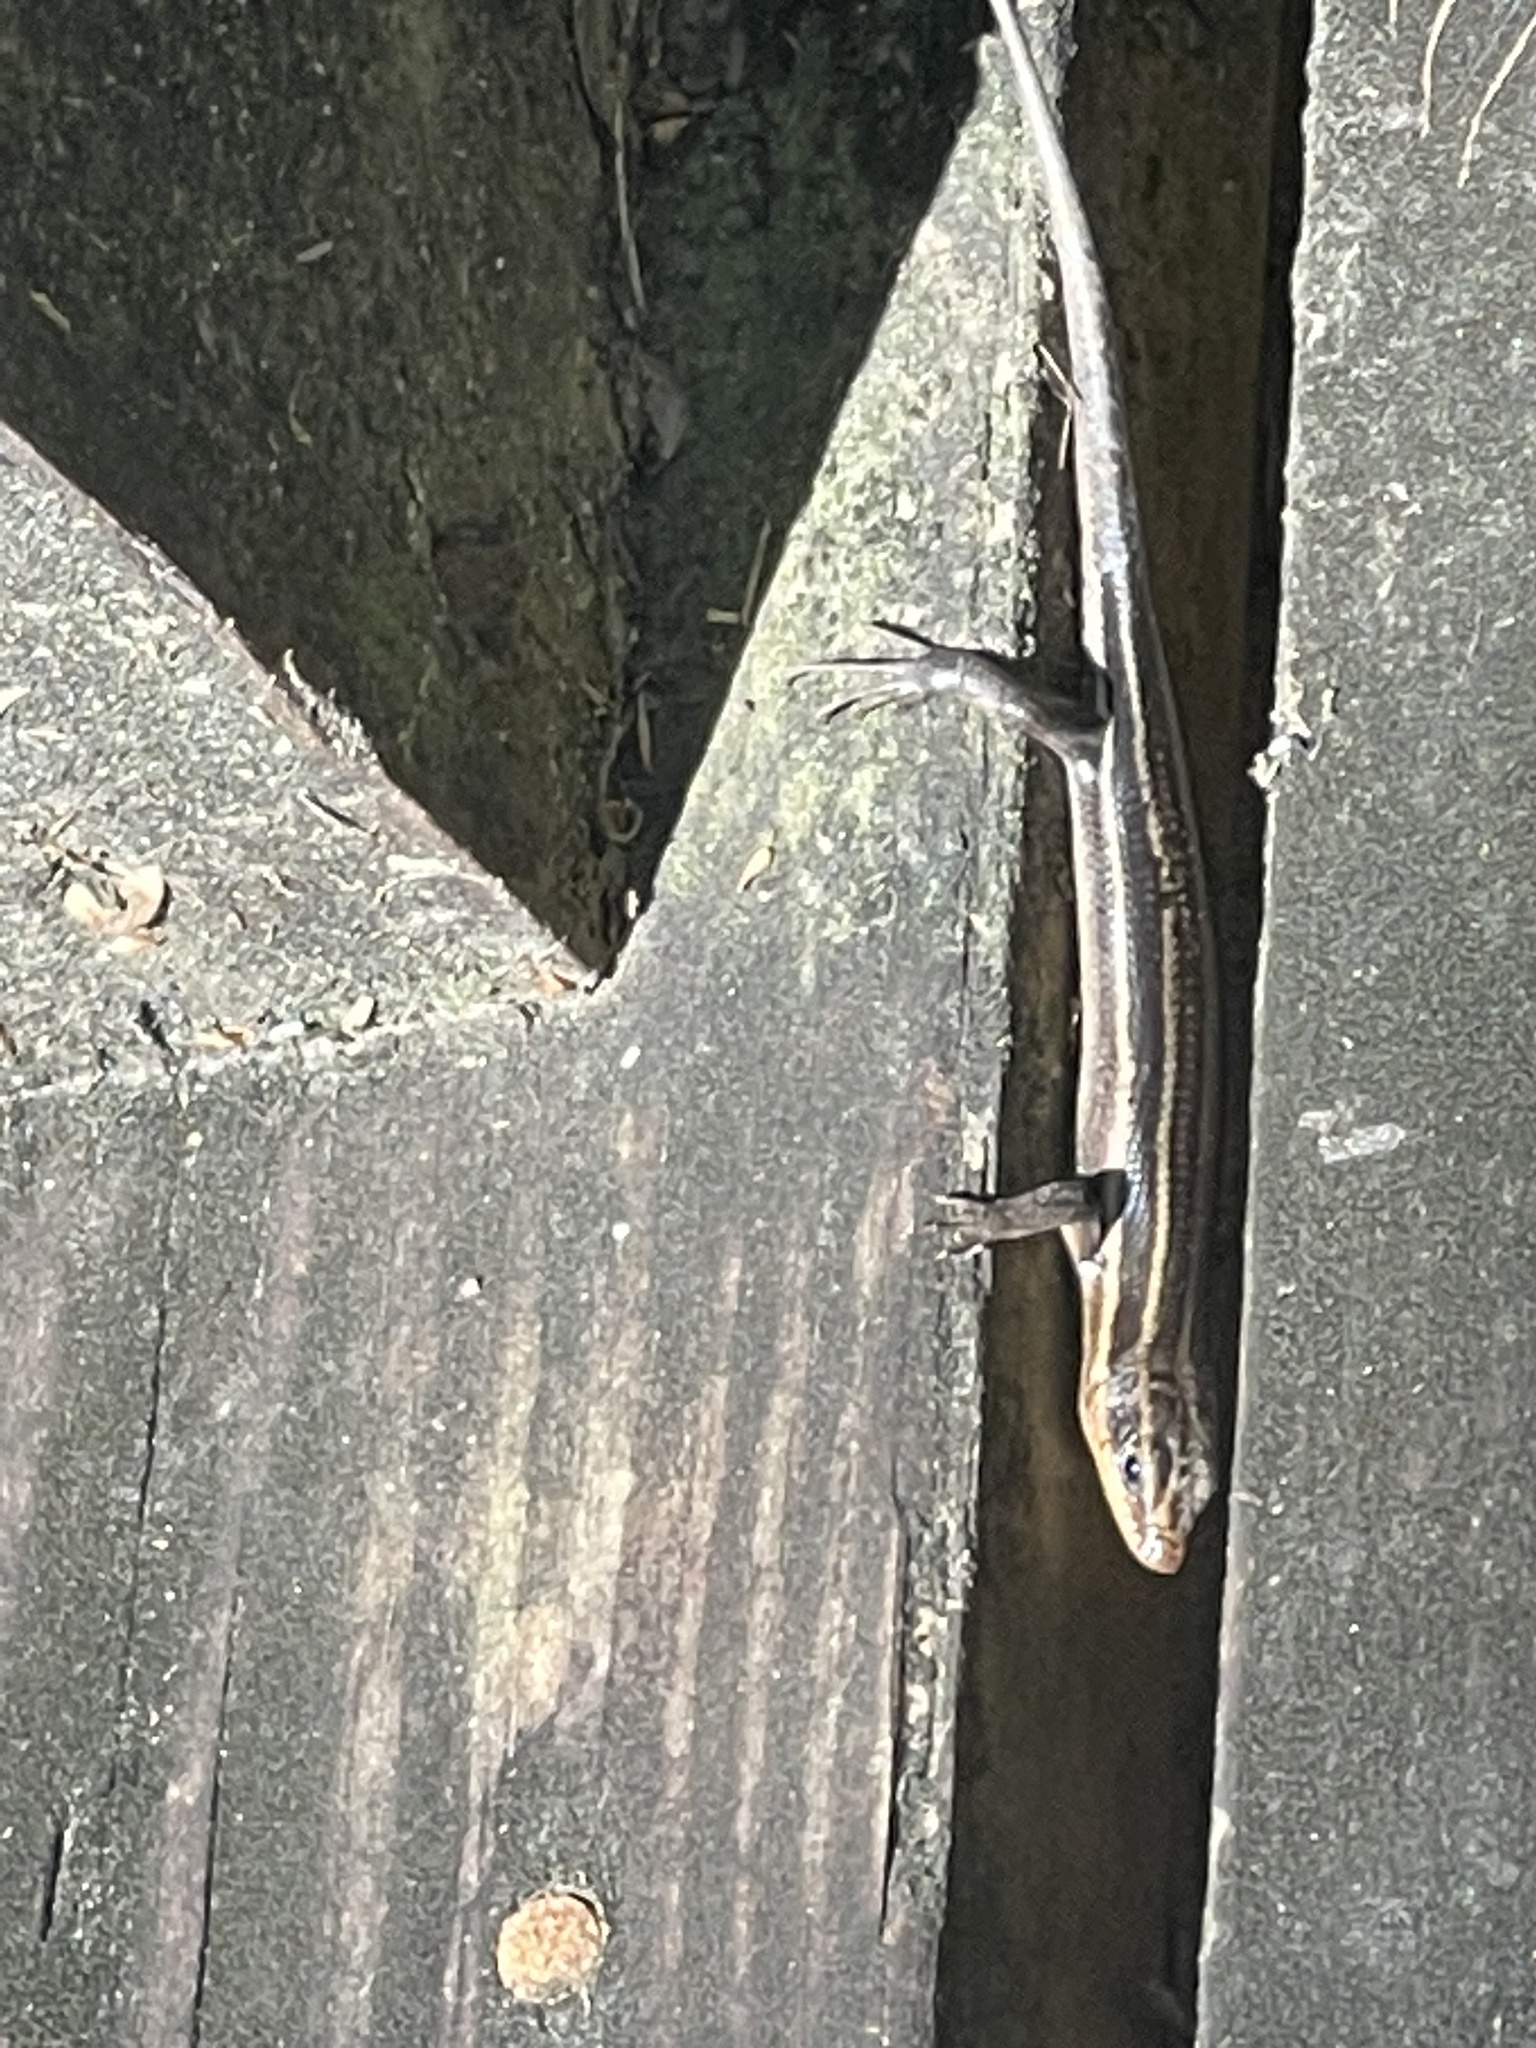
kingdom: Animalia
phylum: Chordata
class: Squamata
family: Scincidae
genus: Plestiodon
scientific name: Plestiodon fasciatus
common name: Five-lined skink
